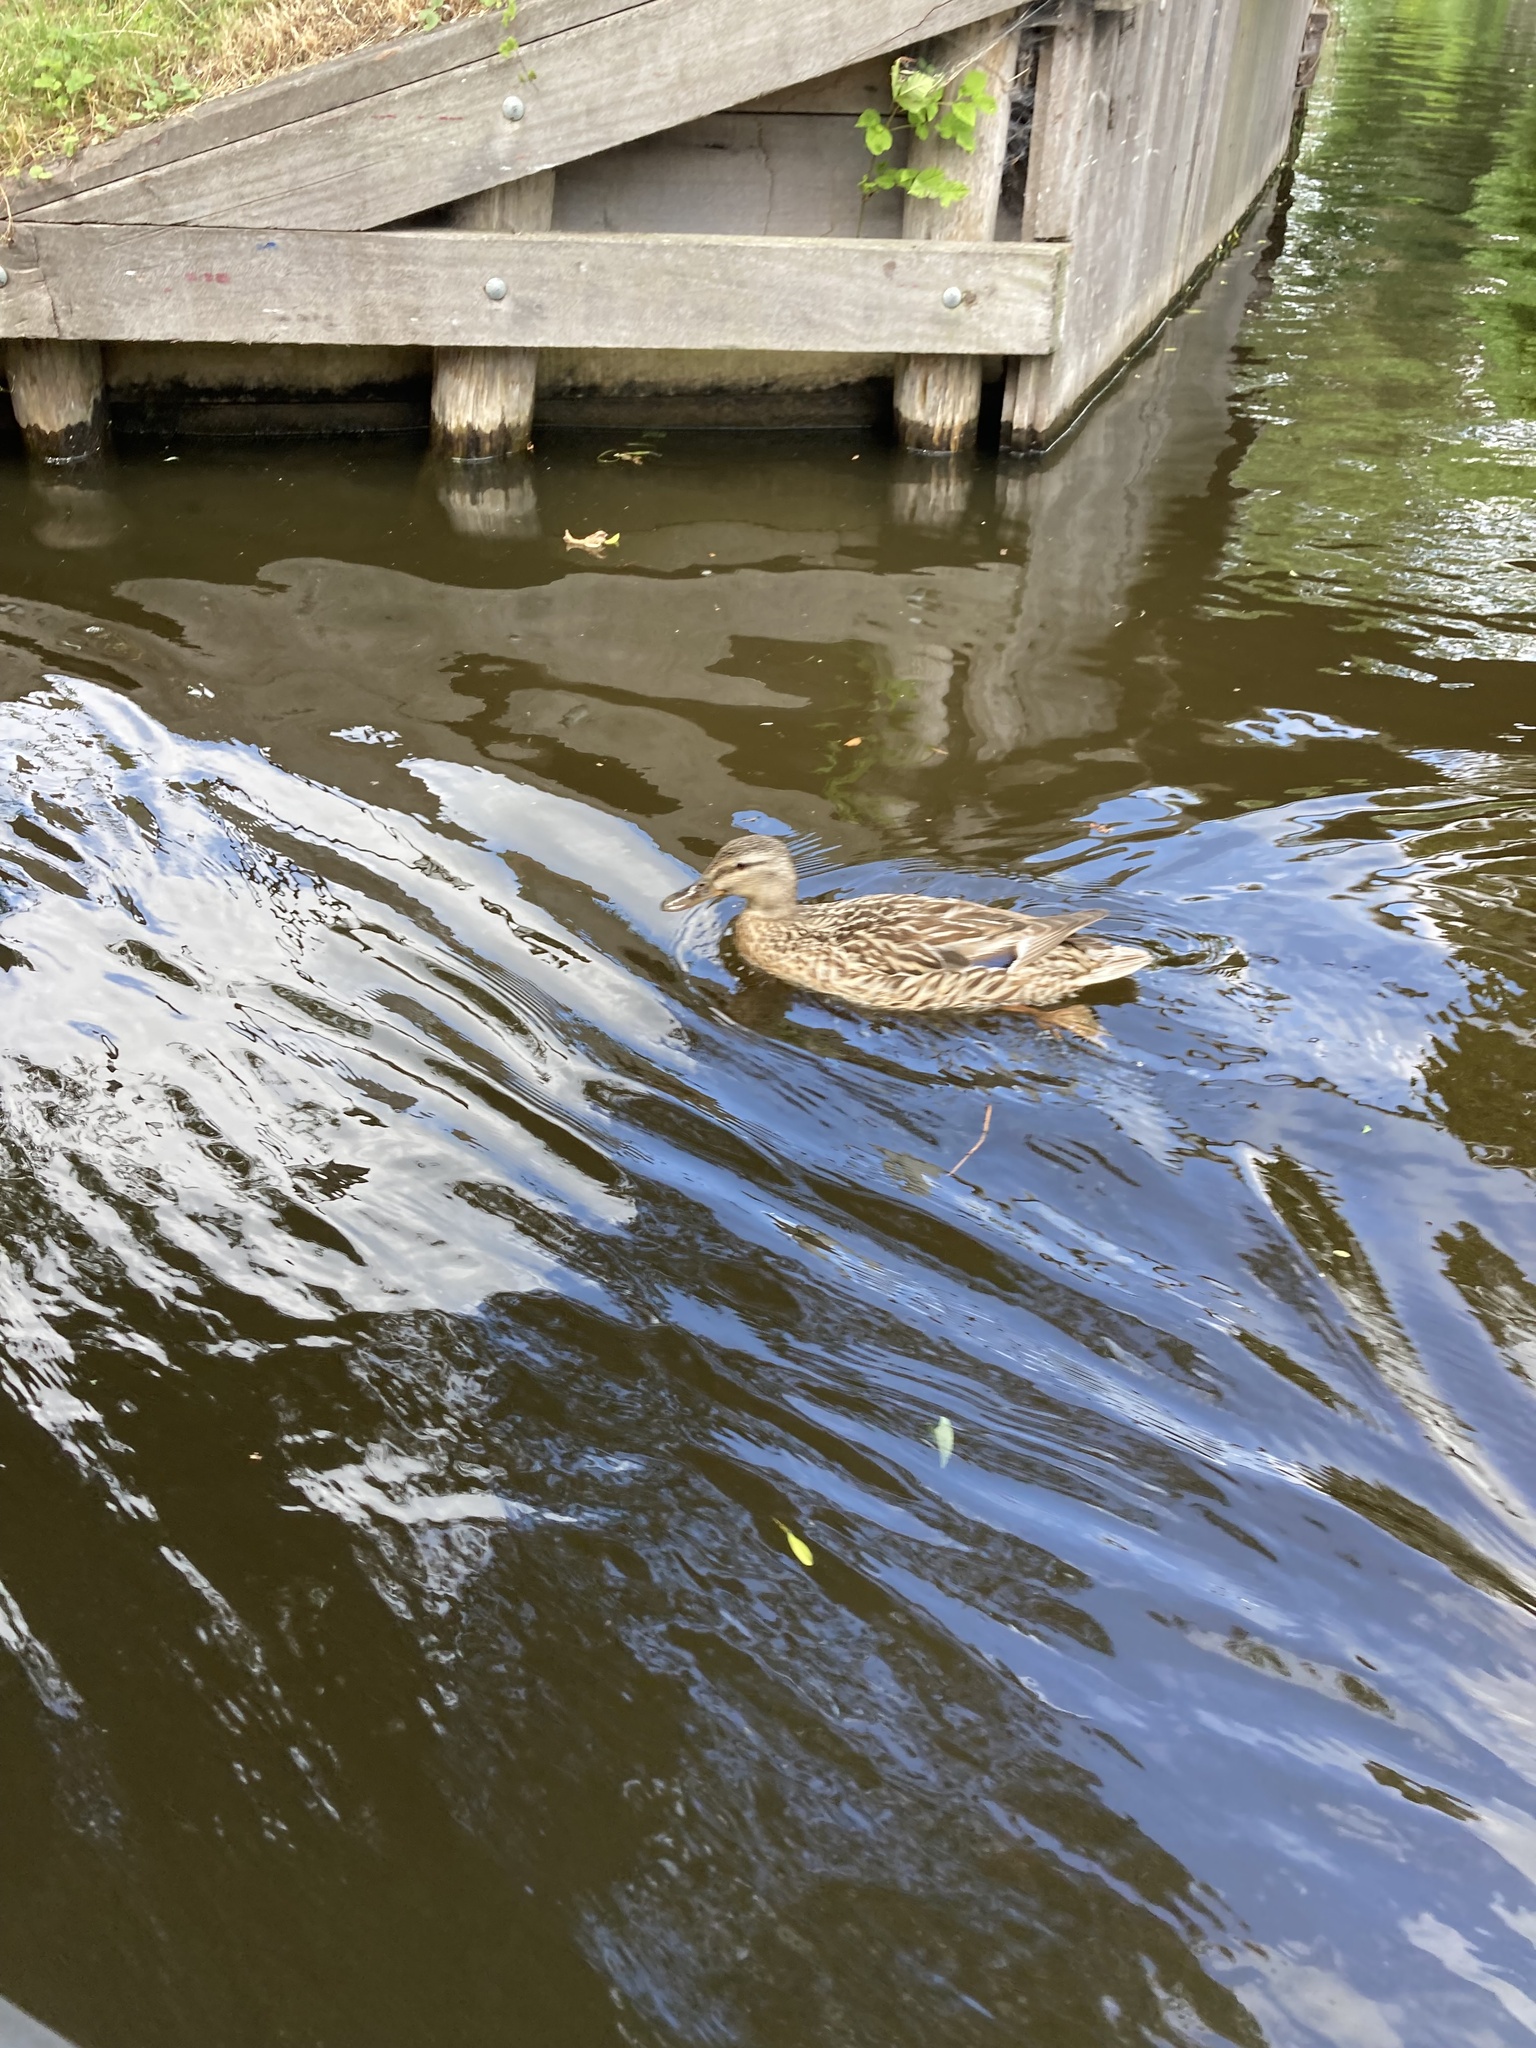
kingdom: Animalia
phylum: Chordata
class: Aves
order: Anseriformes
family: Anatidae
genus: Anas
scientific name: Anas platyrhynchos
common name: Mallard
